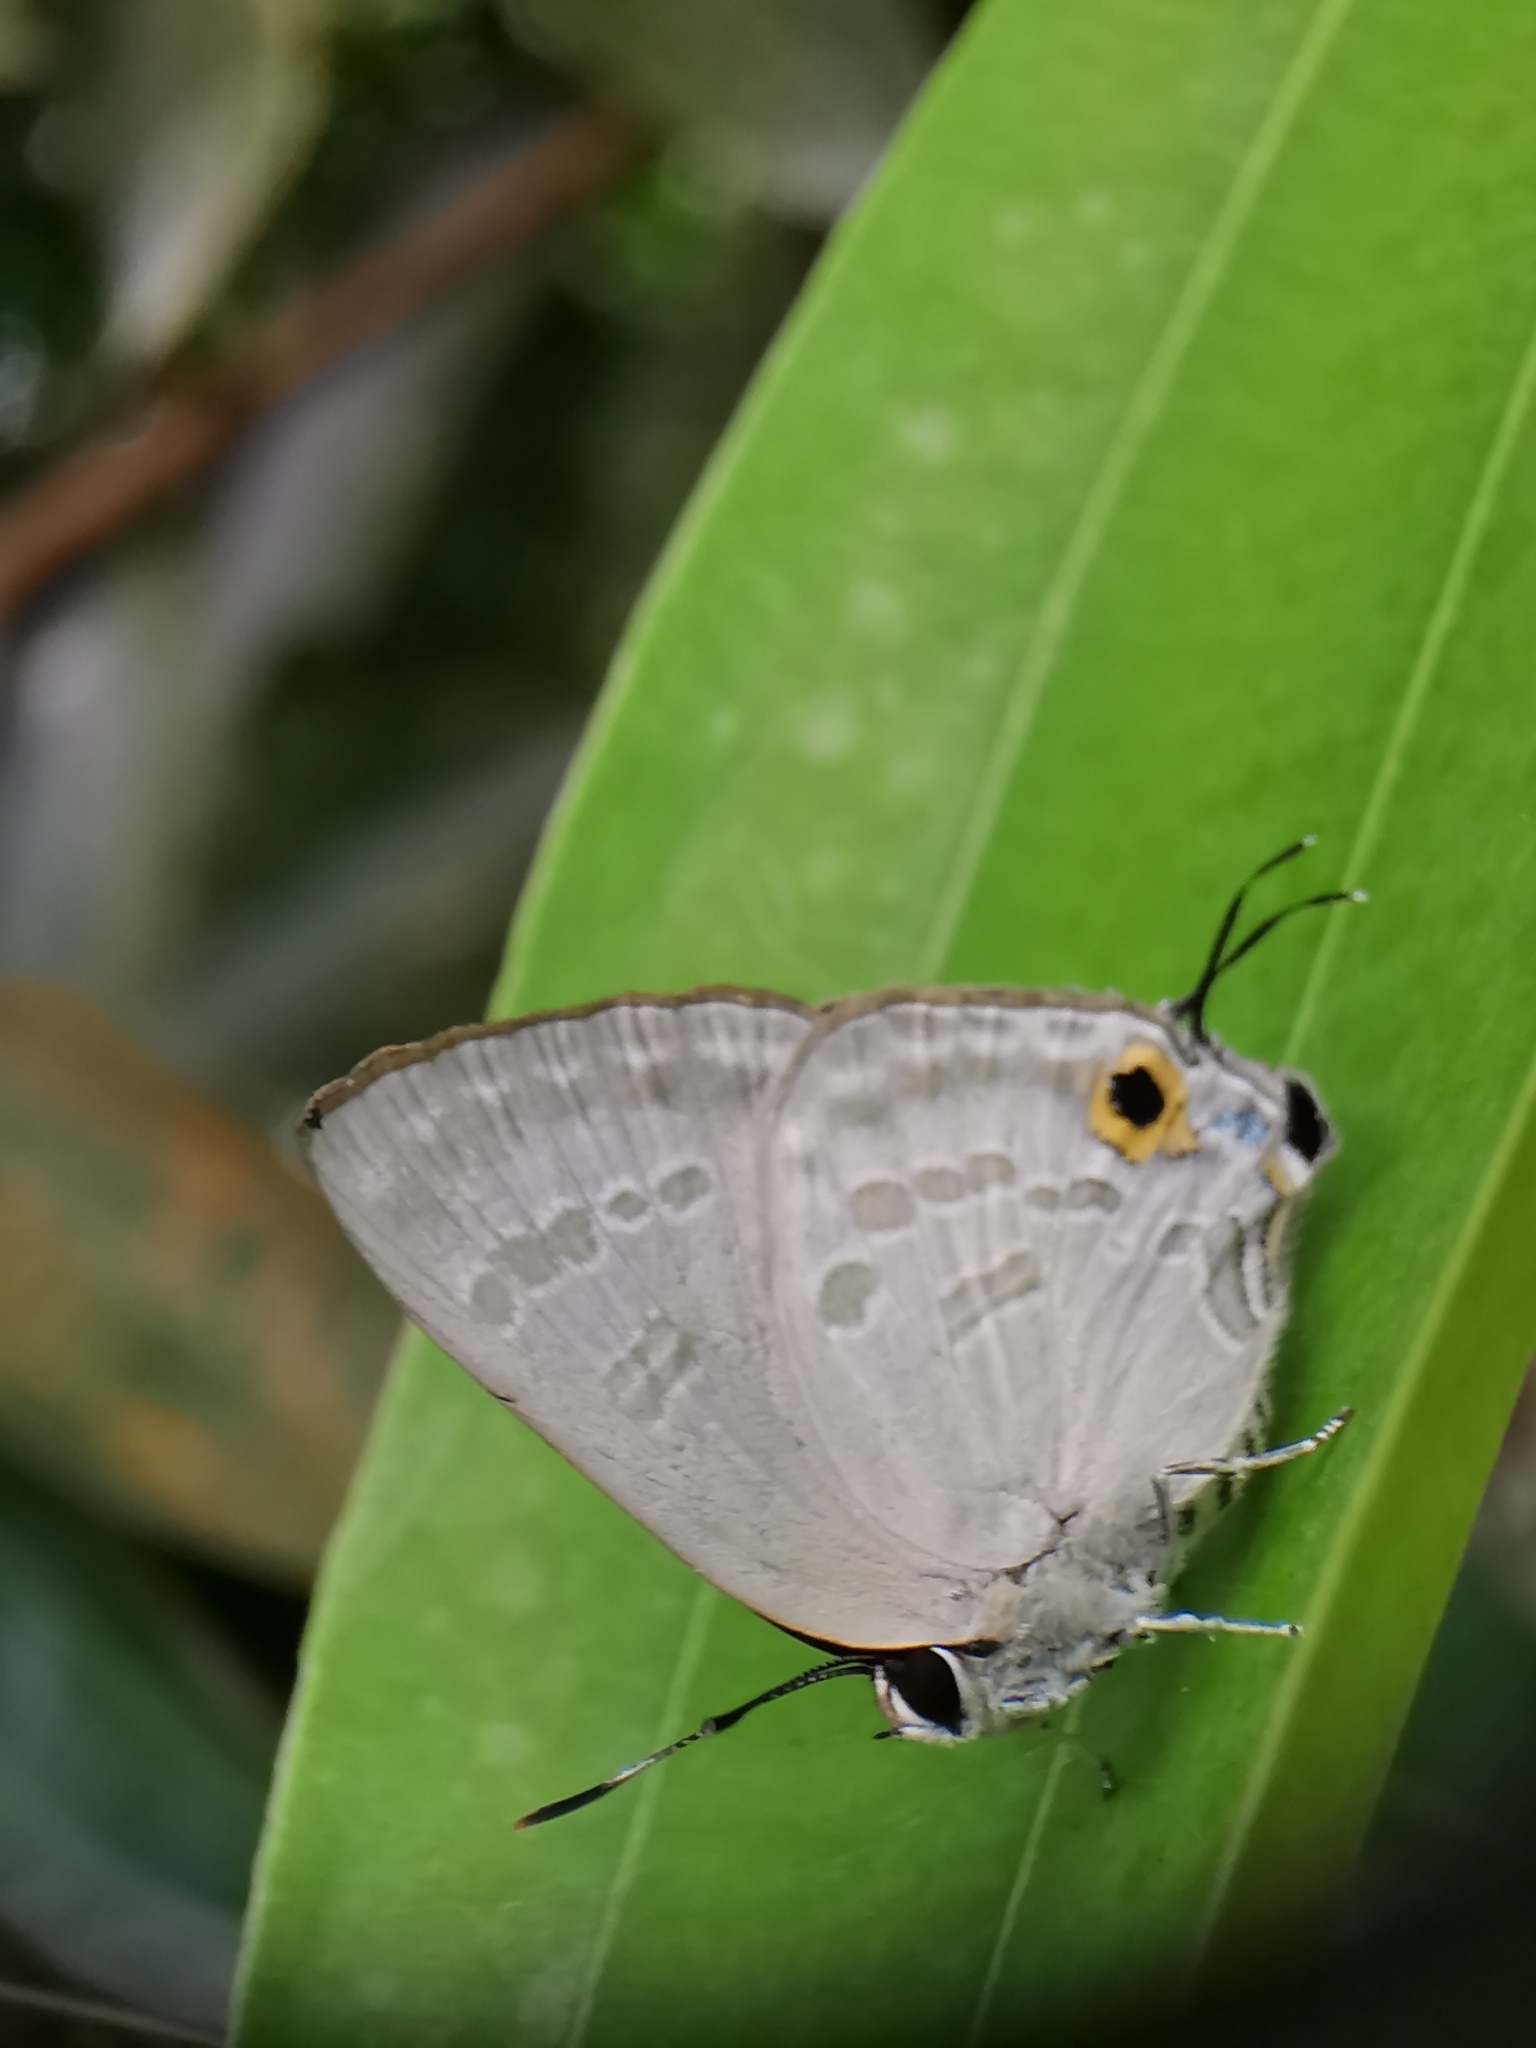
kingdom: Animalia
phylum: Arthropoda
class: Insecta
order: Lepidoptera
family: Lycaenidae
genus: Deudorix
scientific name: Deudorix elioti
